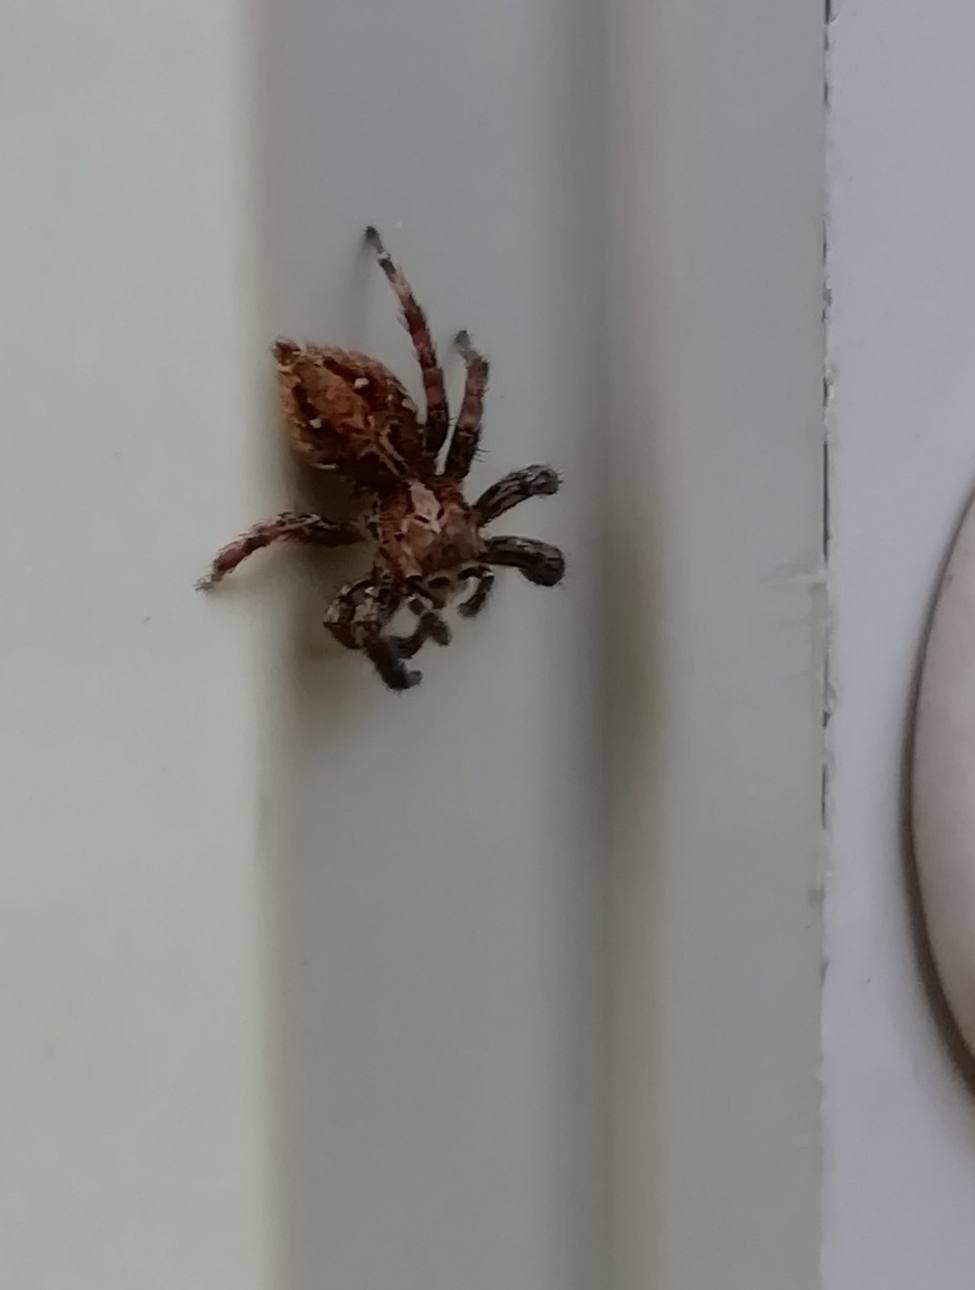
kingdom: Animalia
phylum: Arthropoda
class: Arachnida
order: Araneae
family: Salticidae
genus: Plexippus
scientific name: Plexippus paykulli
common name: Pantropical jumper
